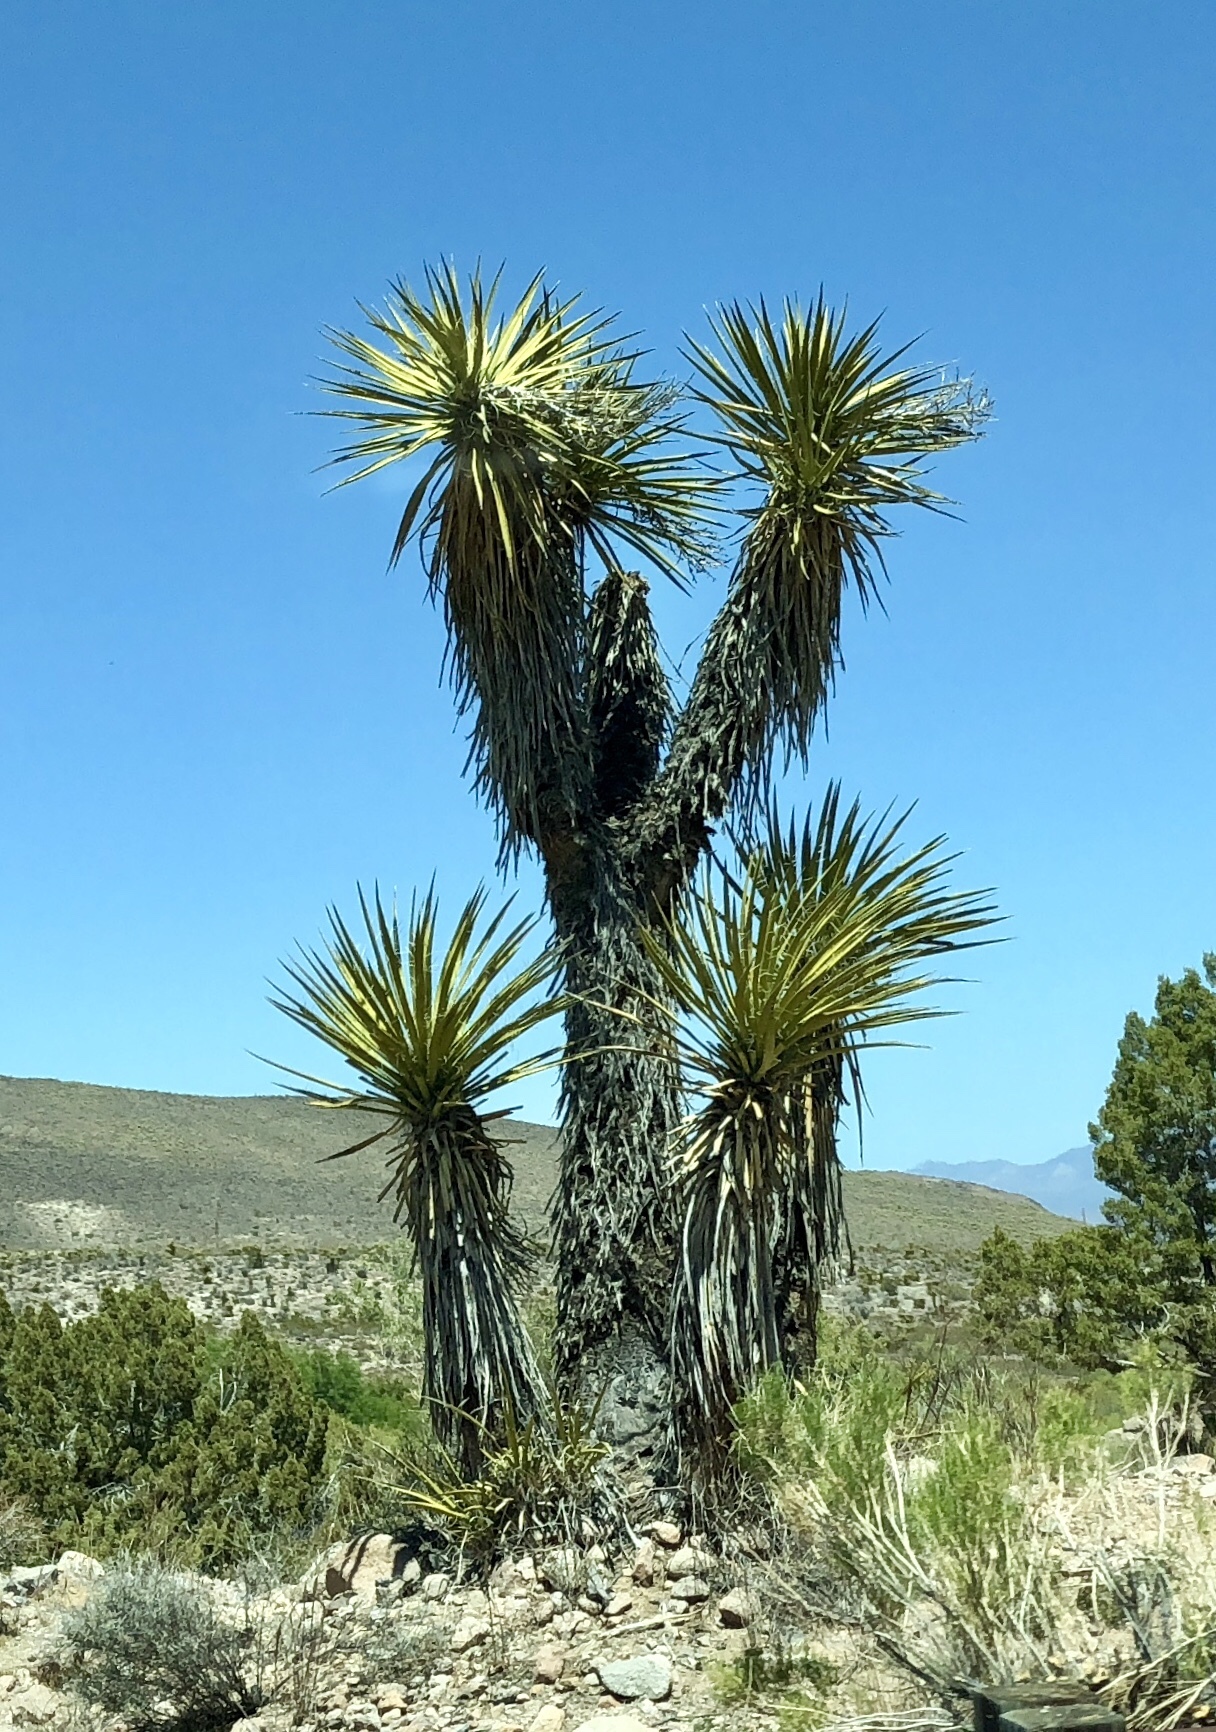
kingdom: Plantae
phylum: Tracheophyta
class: Liliopsida
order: Asparagales
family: Asparagaceae
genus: Yucca
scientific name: Yucca schidigera
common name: Mojave yucca
